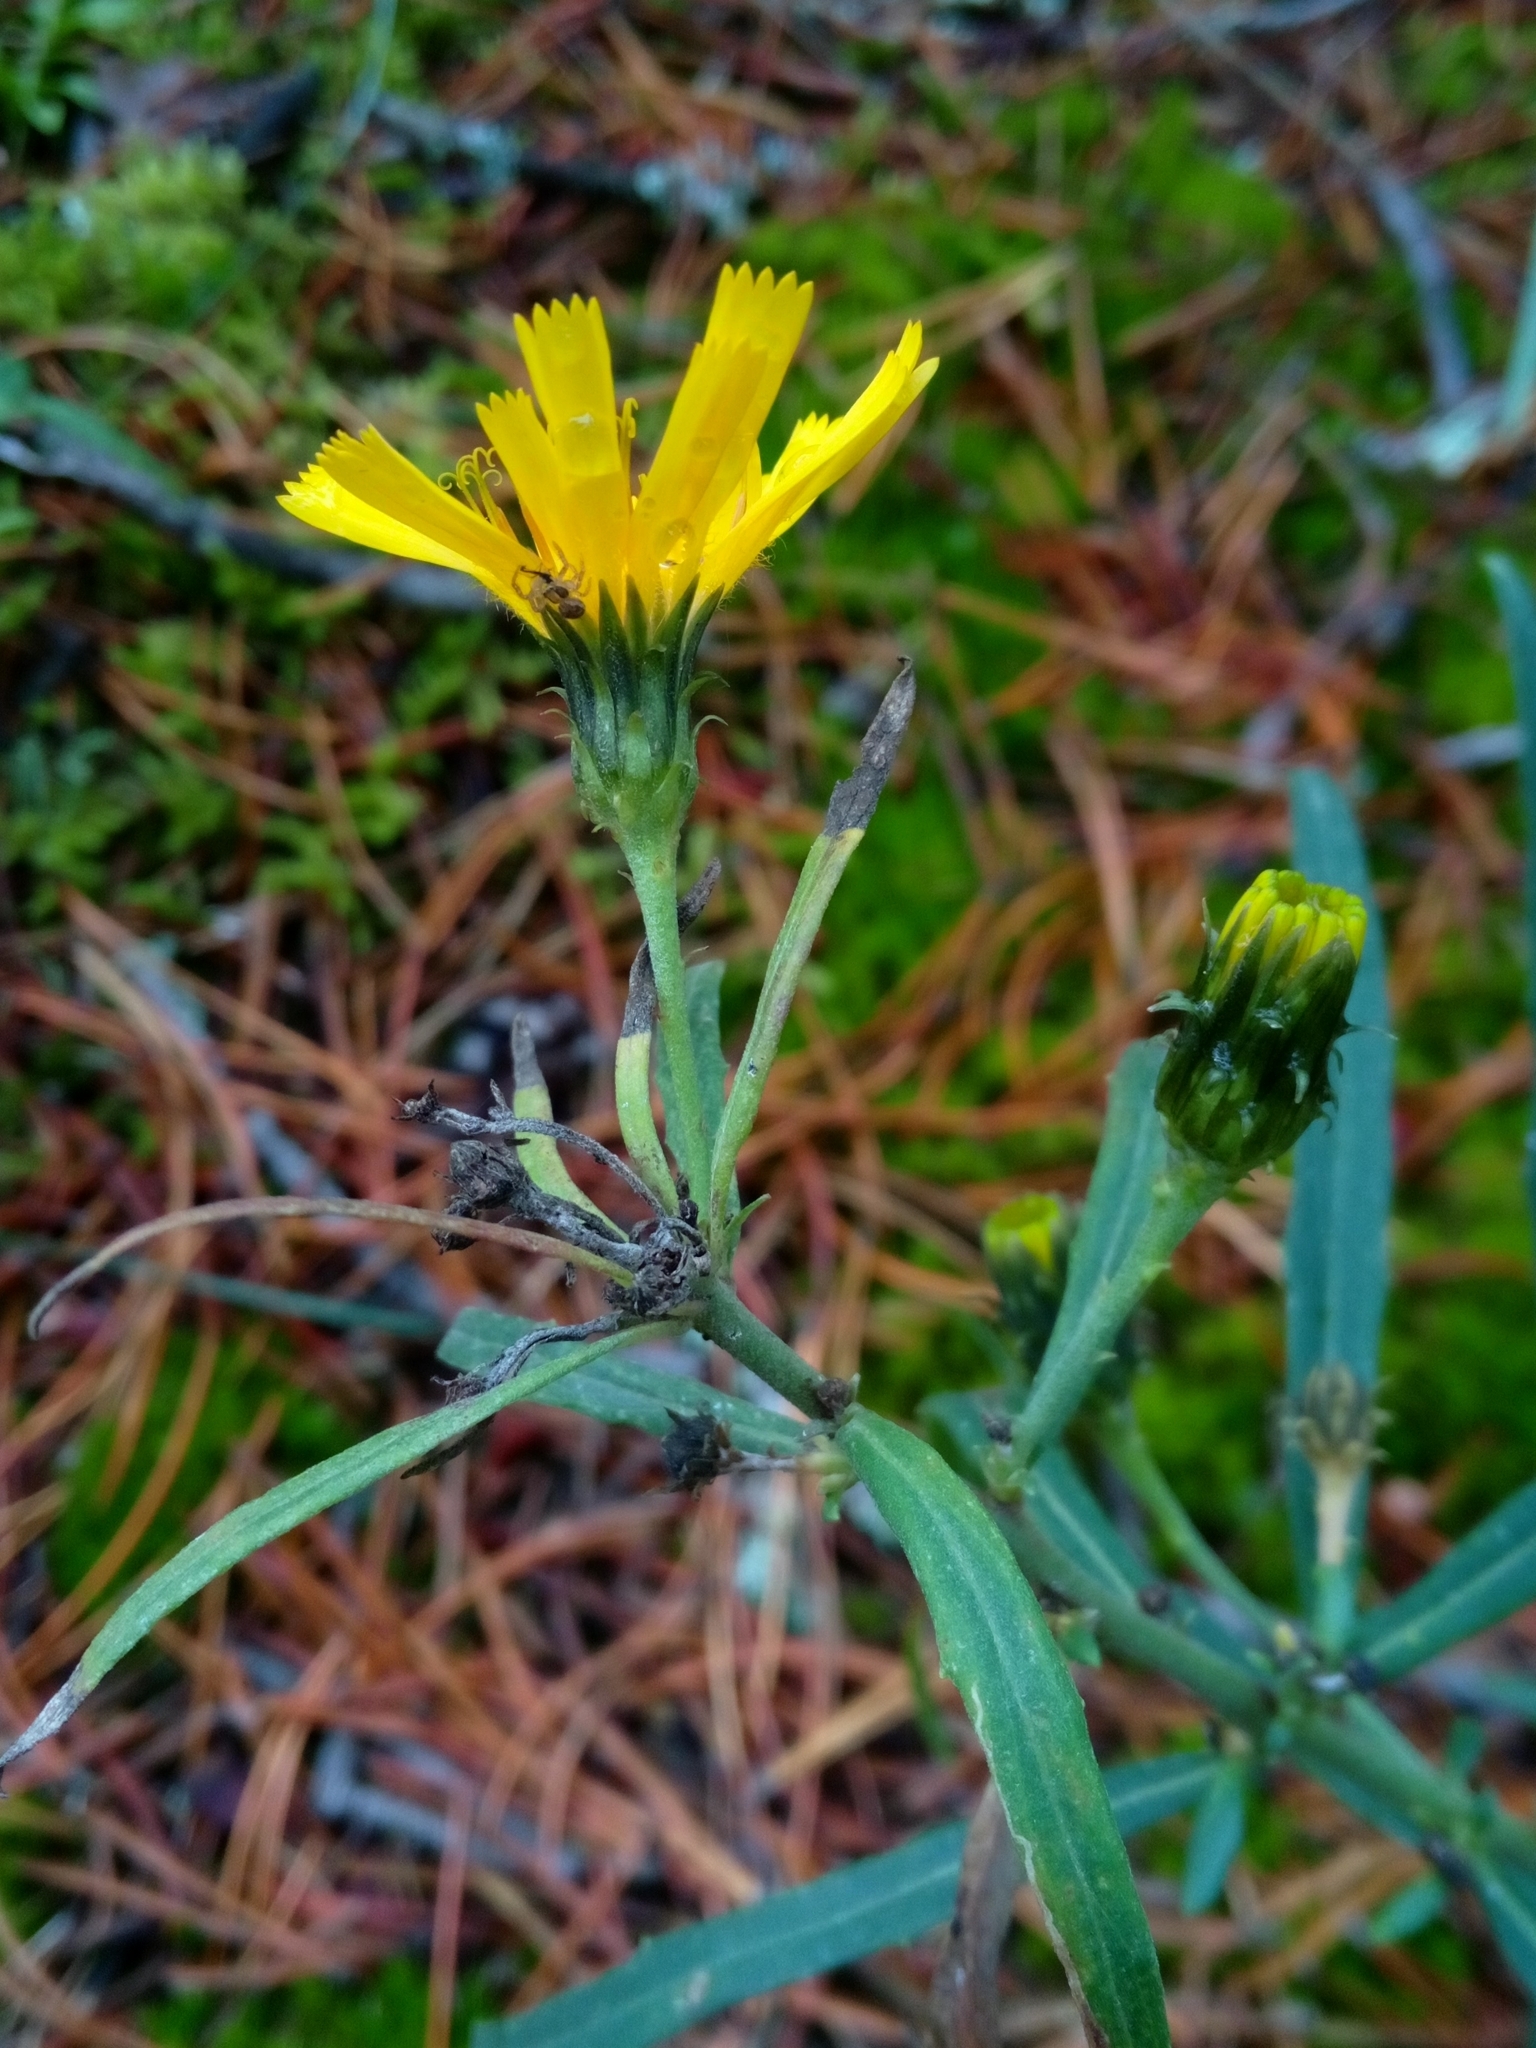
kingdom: Plantae
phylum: Tracheophyta
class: Magnoliopsida
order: Asterales
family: Asteraceae
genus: Hieracium
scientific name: Hieracium umbellatum
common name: Northern hawkweed
